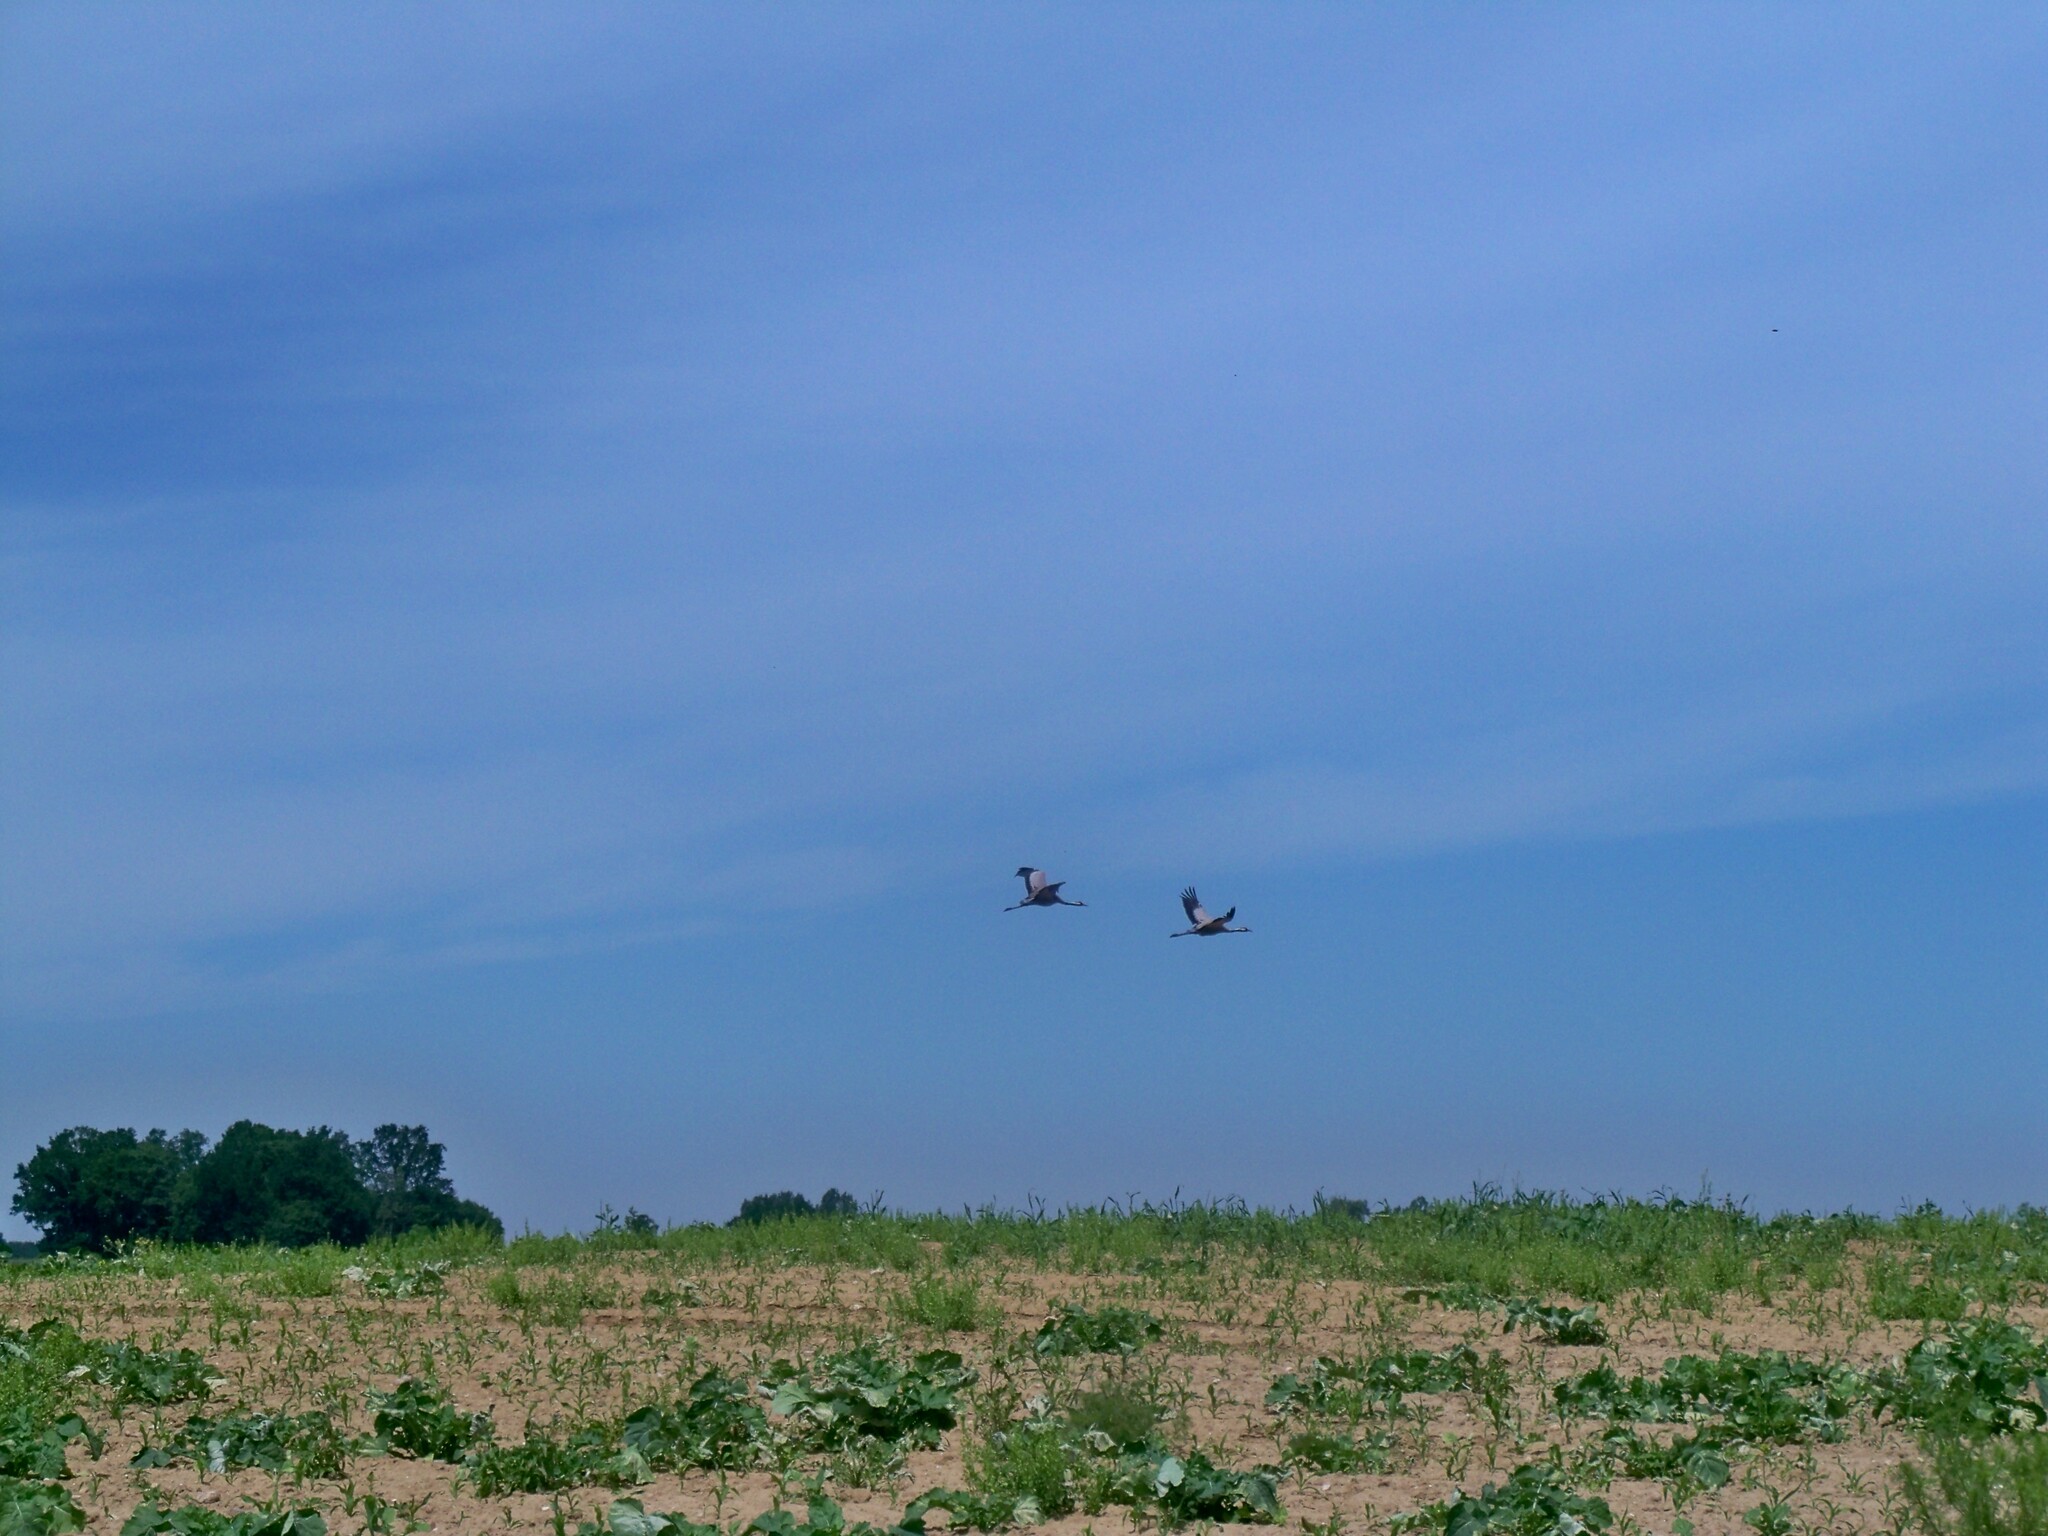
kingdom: Animalia
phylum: Chordata
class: Aves
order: Gruiformes
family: Gruidae
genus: Grus
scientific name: Grus grus
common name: Common crane
